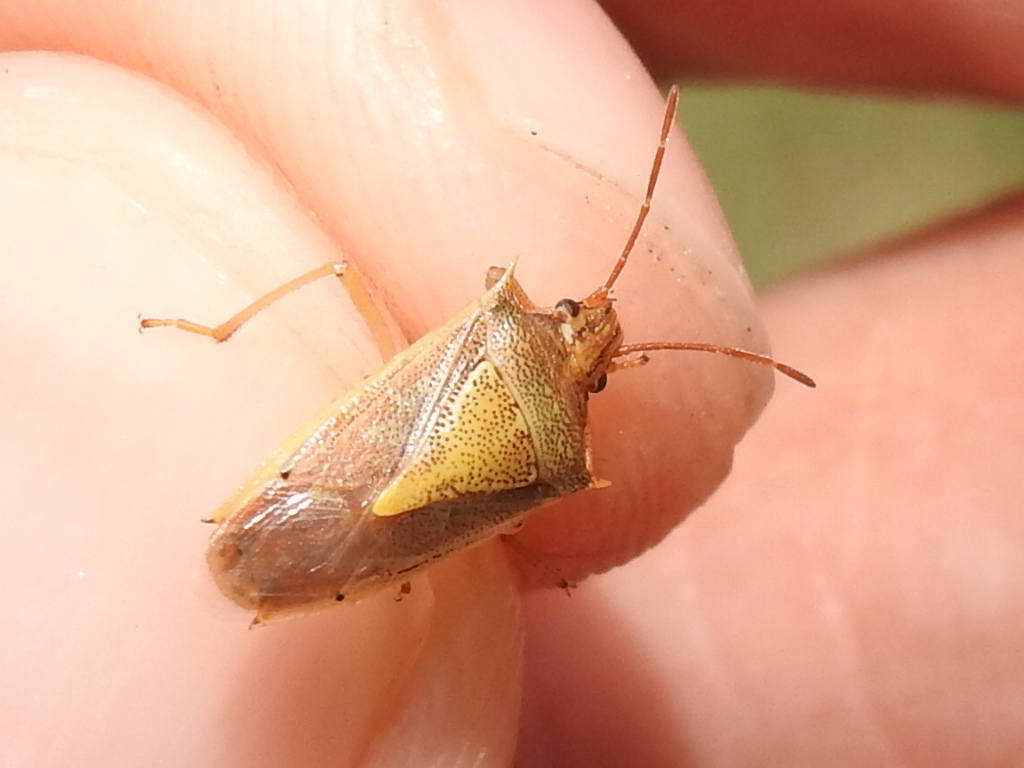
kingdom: Animalia
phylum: Arthropoda
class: Insecta
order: Hemiptera
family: Pentatomidae
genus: Oebalus
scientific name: Oebalus pugnax
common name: Rice stink bug
